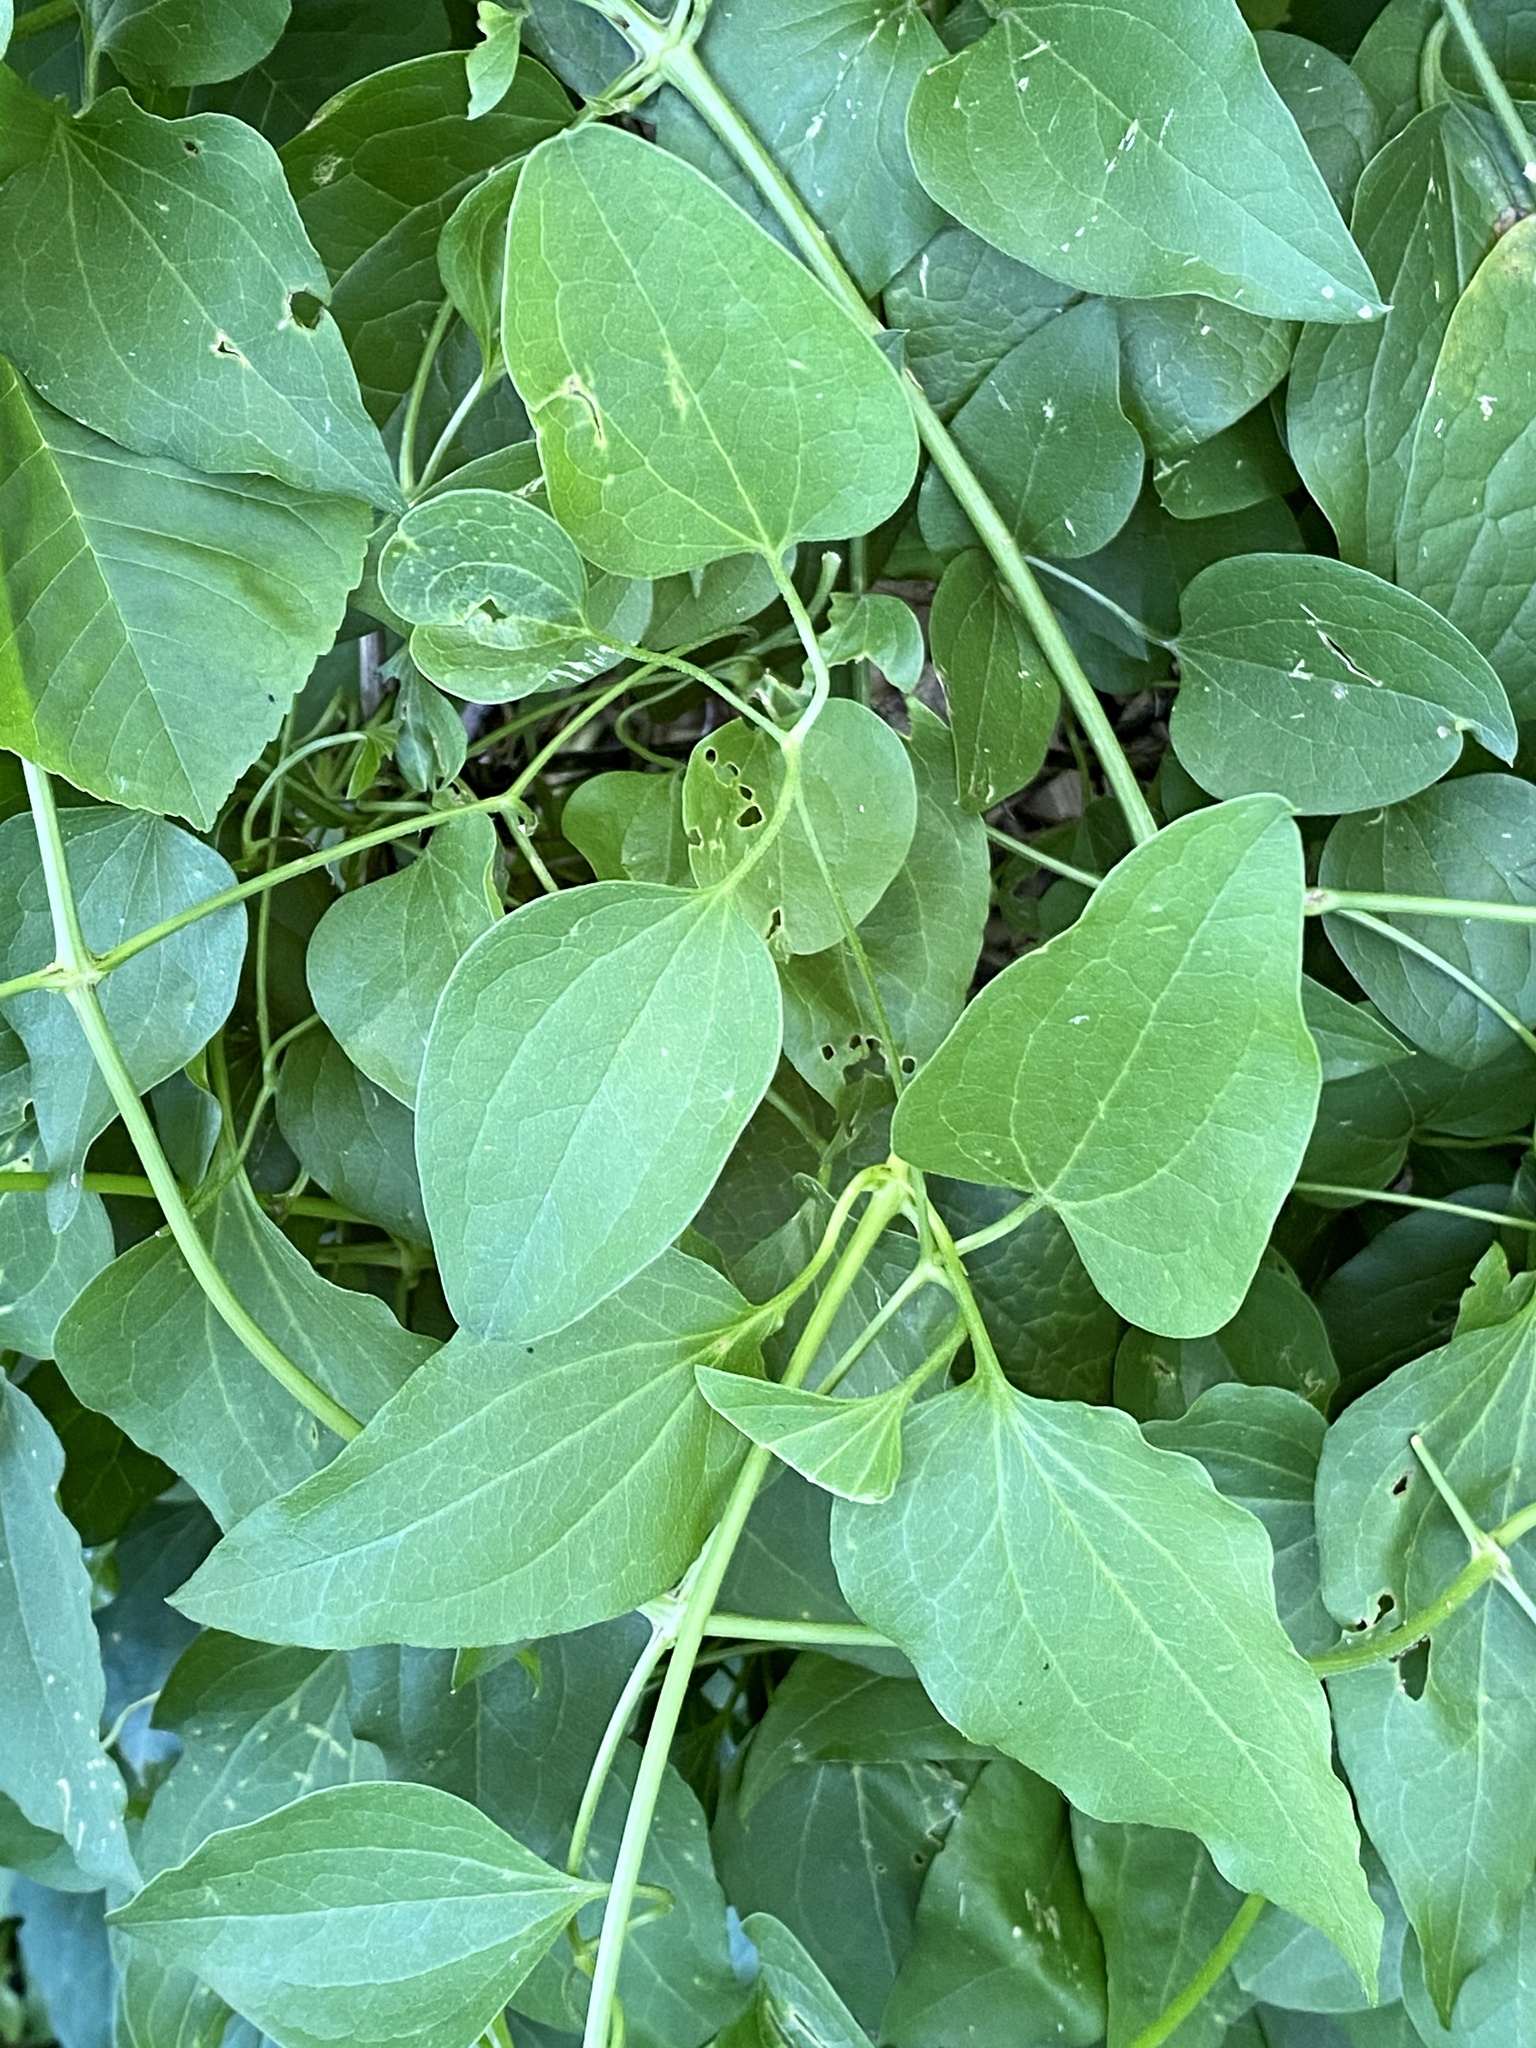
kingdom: Plantae
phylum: Tracheophyta
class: Magnoliopsida
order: Ranunculales
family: Ranunculaceae
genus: Clematis
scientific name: Clematis terniflora
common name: Sweet autumn clematis
